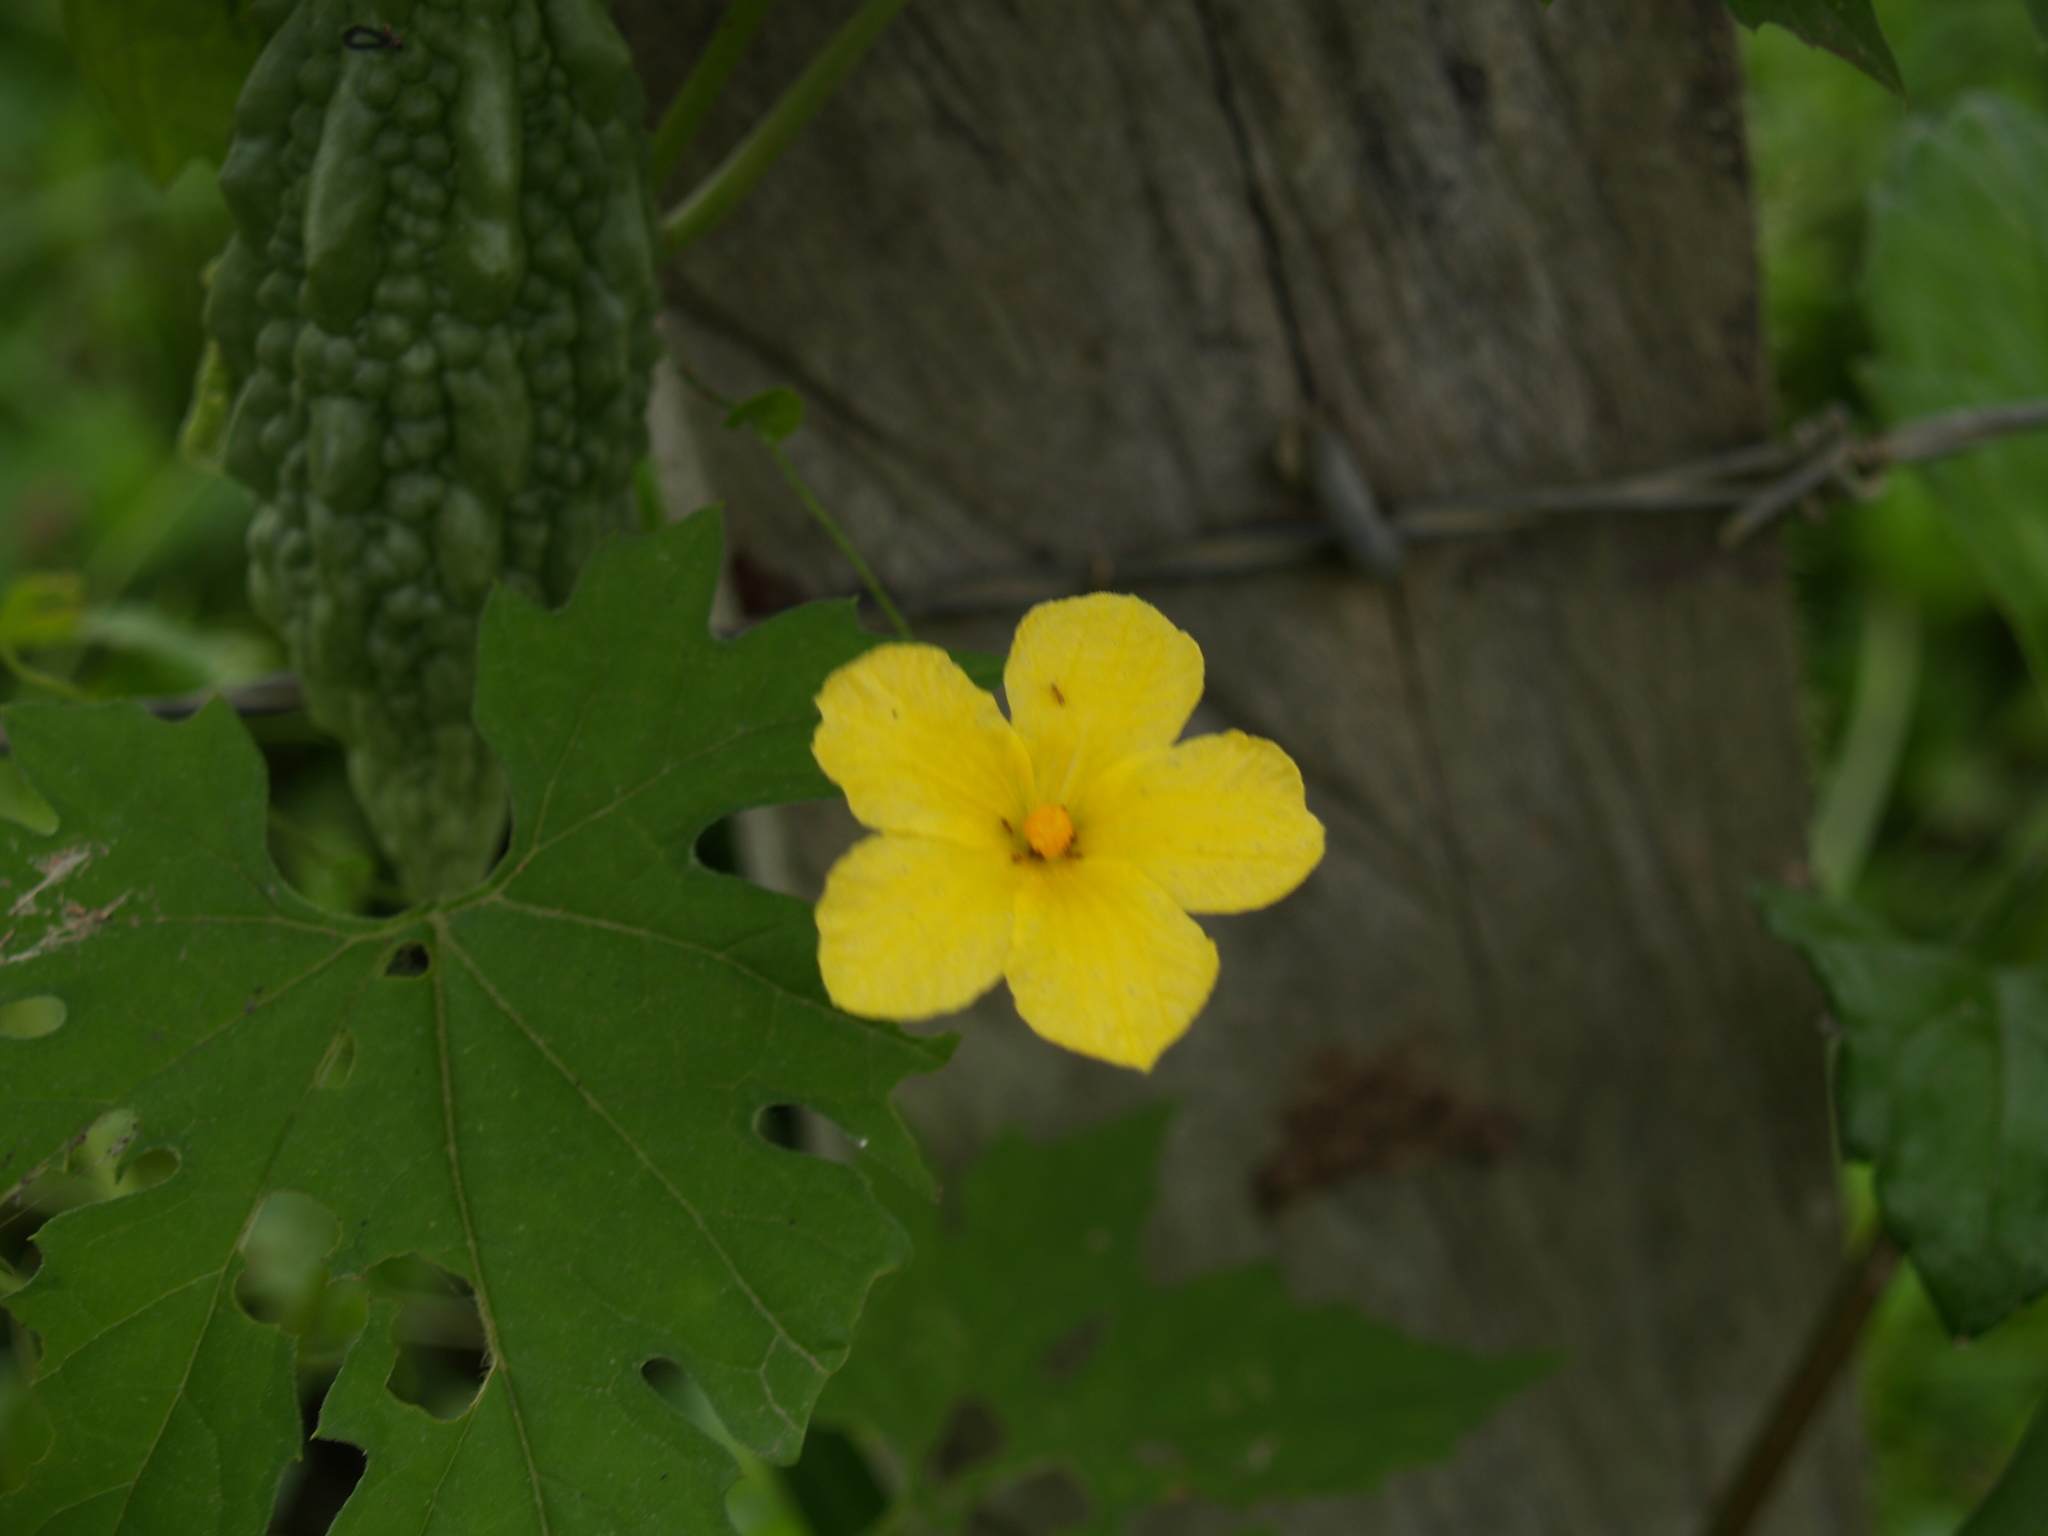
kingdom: Plantae
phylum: Tracheophyta
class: Magnoliopsida
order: Cucurbitales
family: Cucurbitaceae
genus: Momordica
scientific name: Momordica charantia
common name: Balsampear
